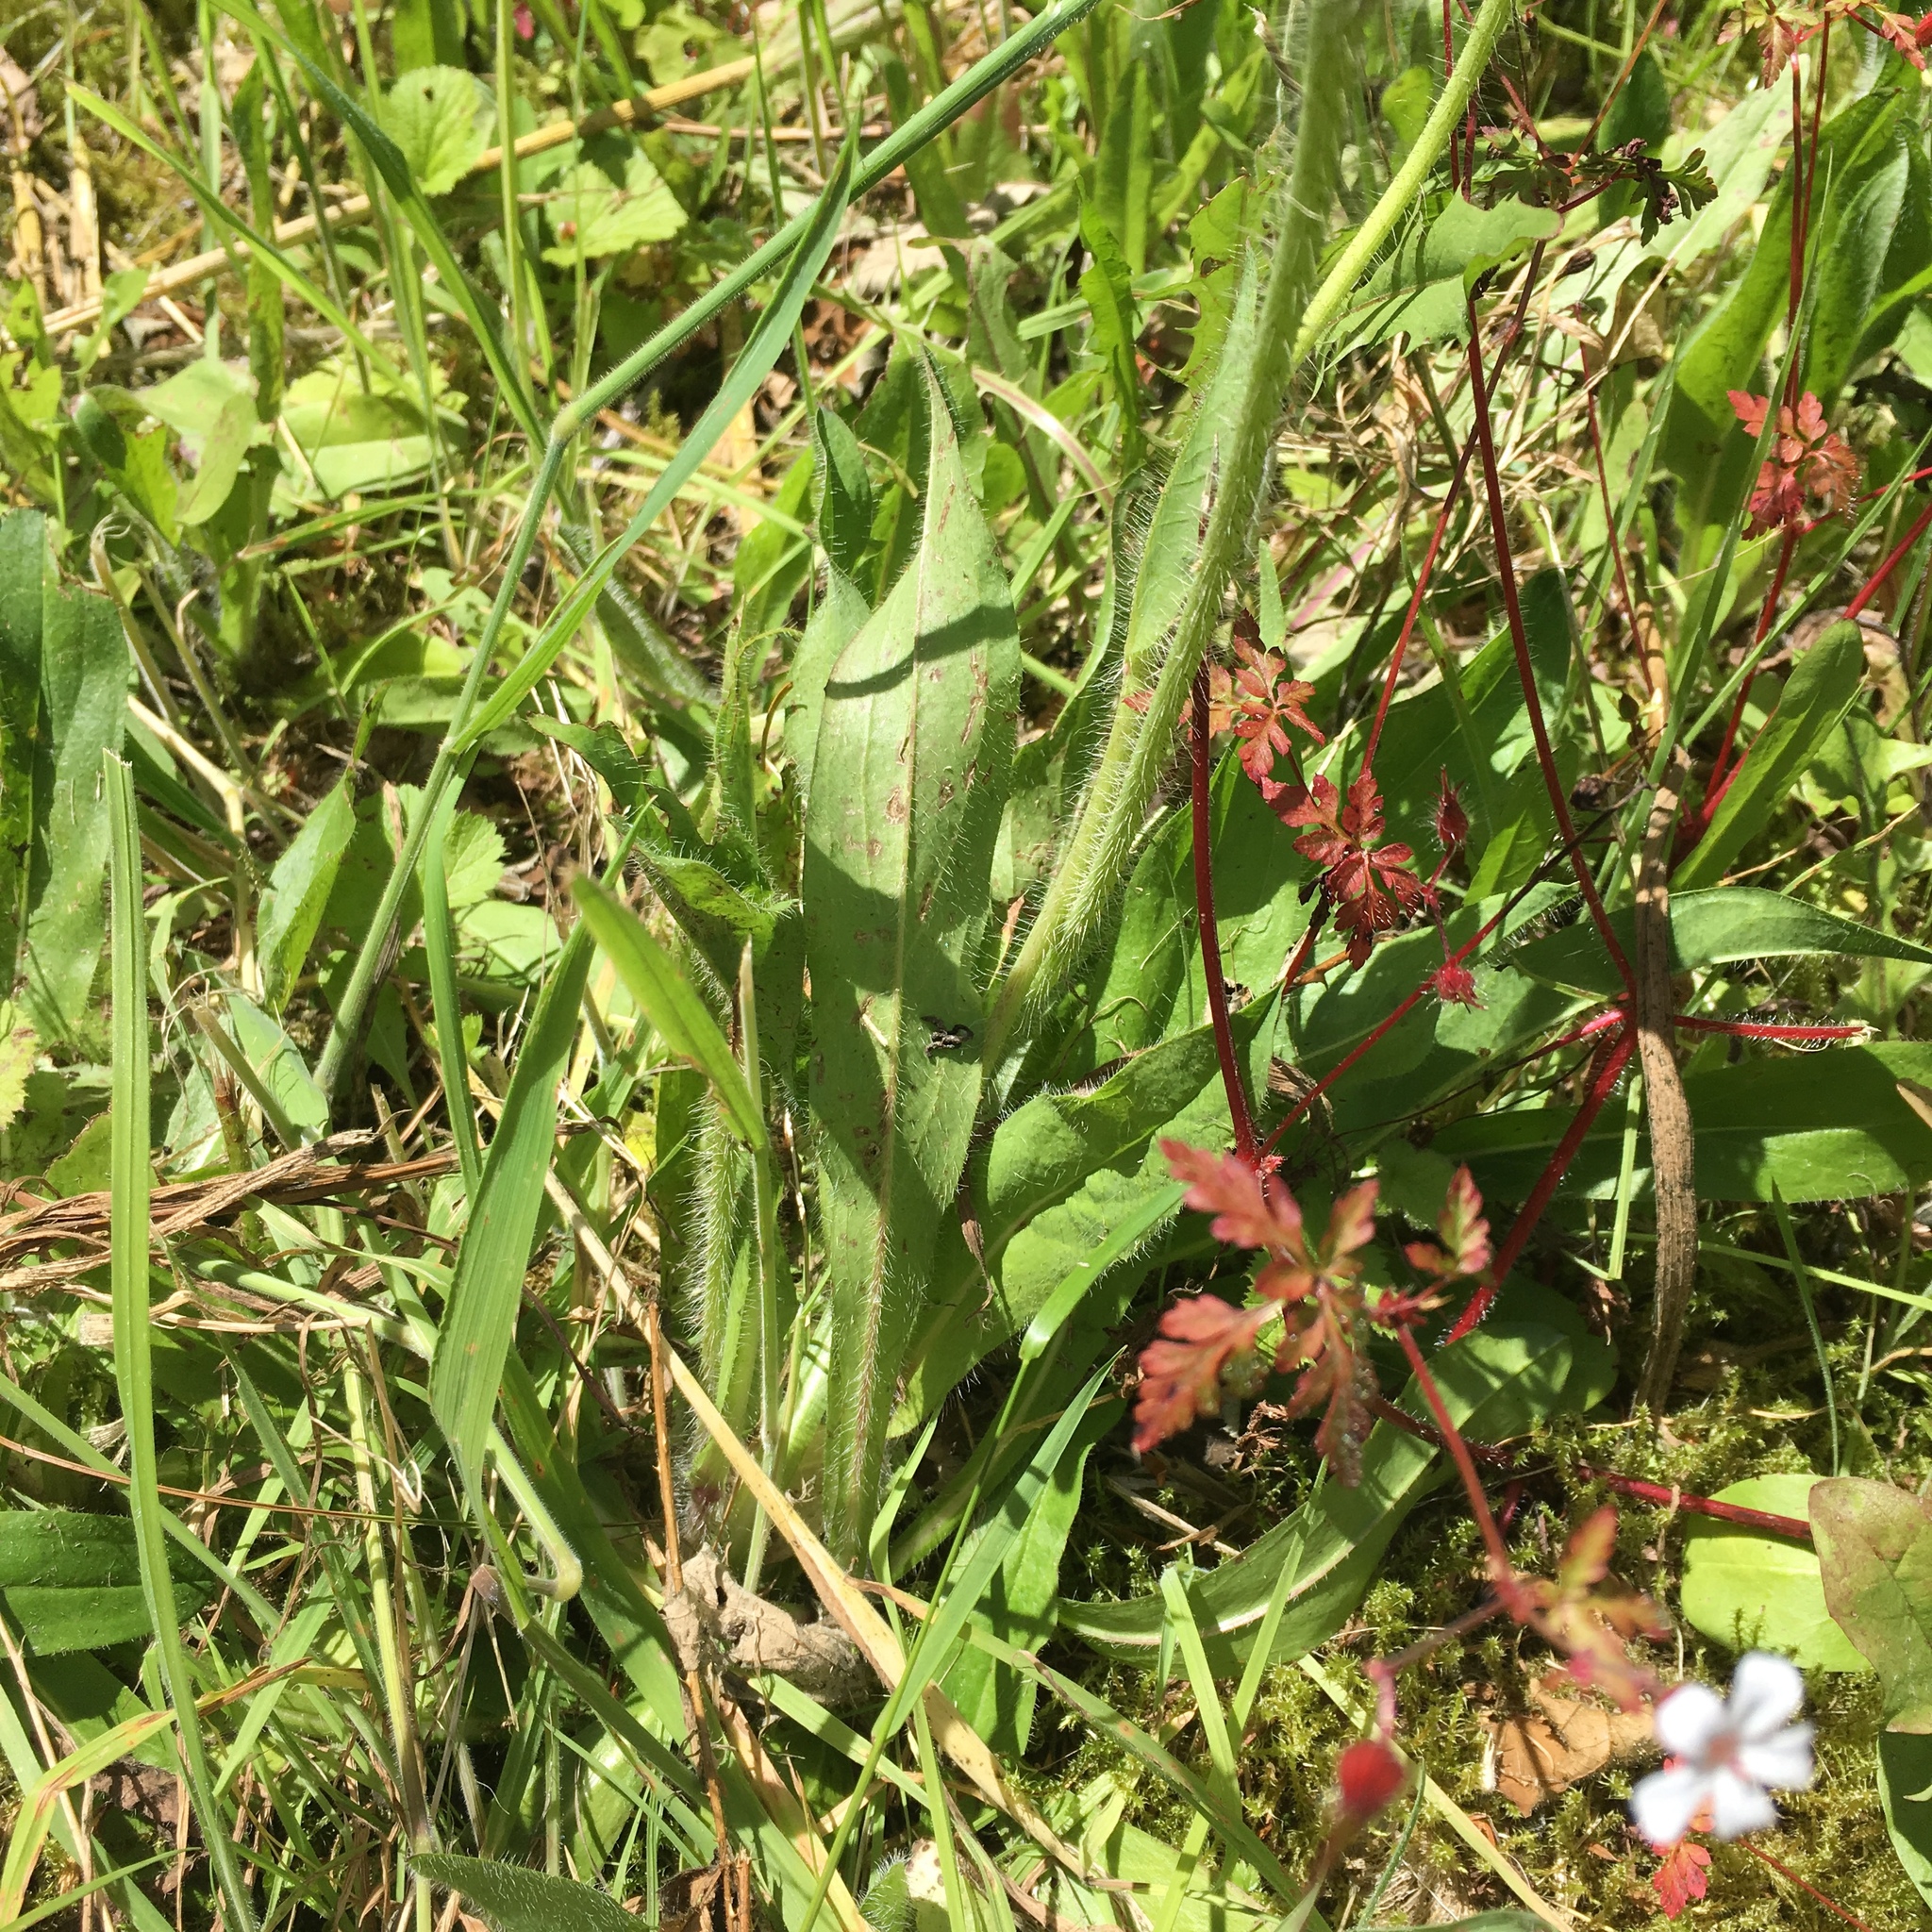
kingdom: Plantae
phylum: Tracheophyta
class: Magnoliopsida
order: Asterales
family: Asteraceae
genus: Pilosella
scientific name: Pilosella aurantiaca
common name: Fox-and-cubs
